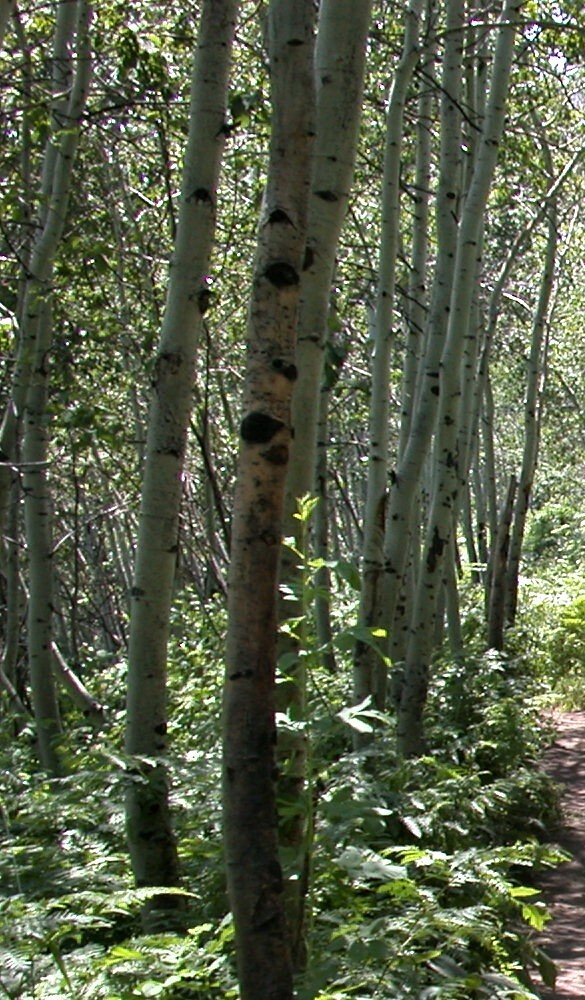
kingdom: Plantae
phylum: Tracheophyta
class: Magnoliopsida
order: Malpighiales
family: Salicaceae
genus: Populus
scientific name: Populus tremuloides
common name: Quaking aspen
